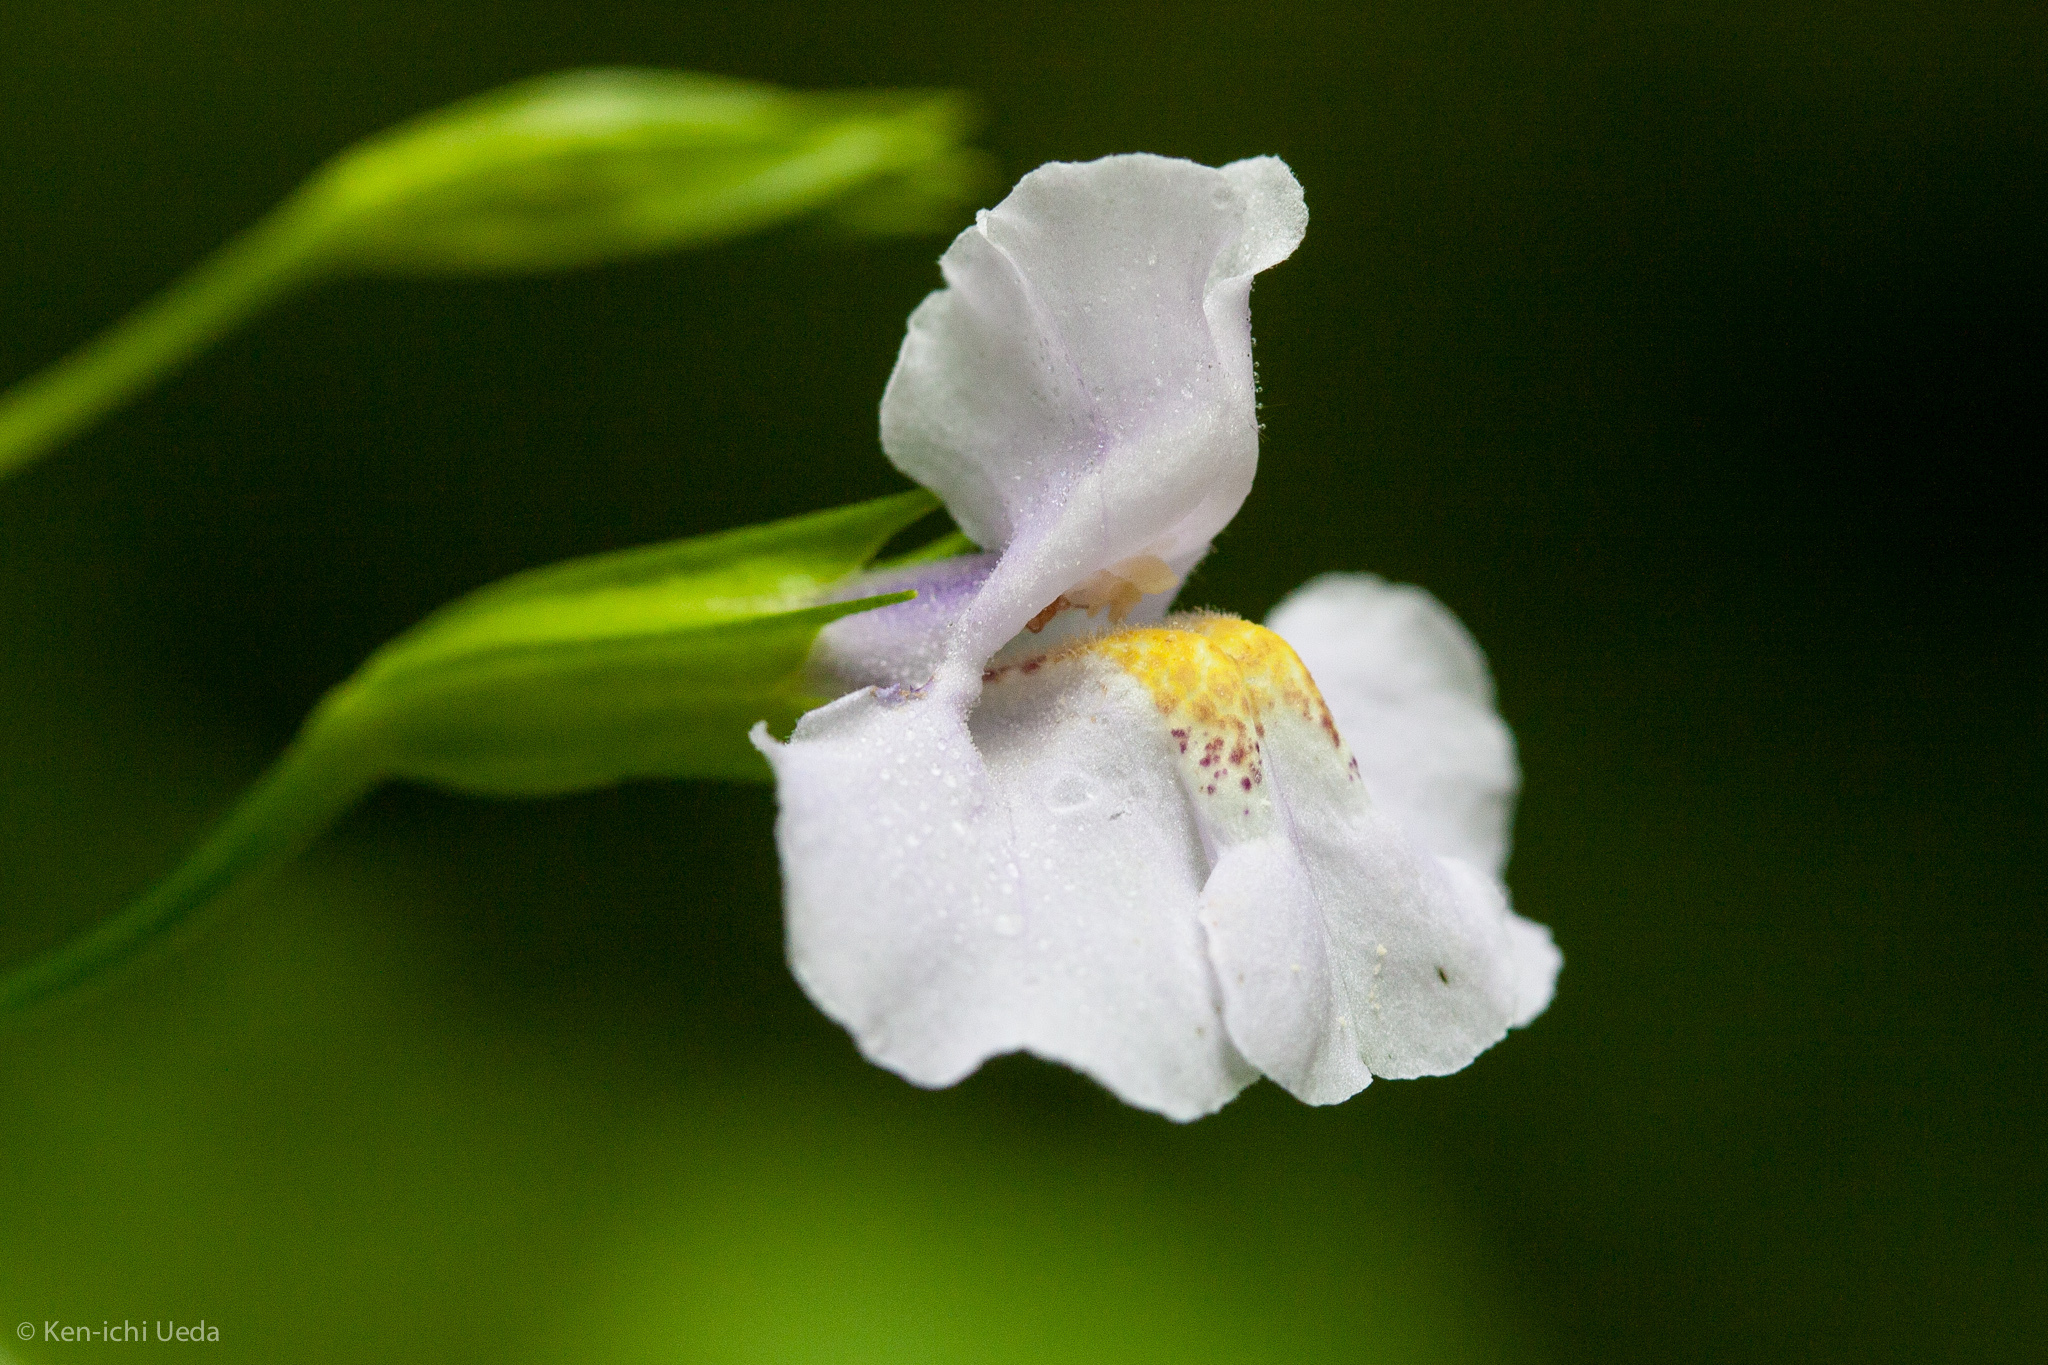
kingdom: Plantae
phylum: Tracheophyta
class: Magnoliopsida
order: Lamiales
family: Phrymaceae
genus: Mimulus
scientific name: Mimulus ringens
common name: Allegheny monkeyflower
